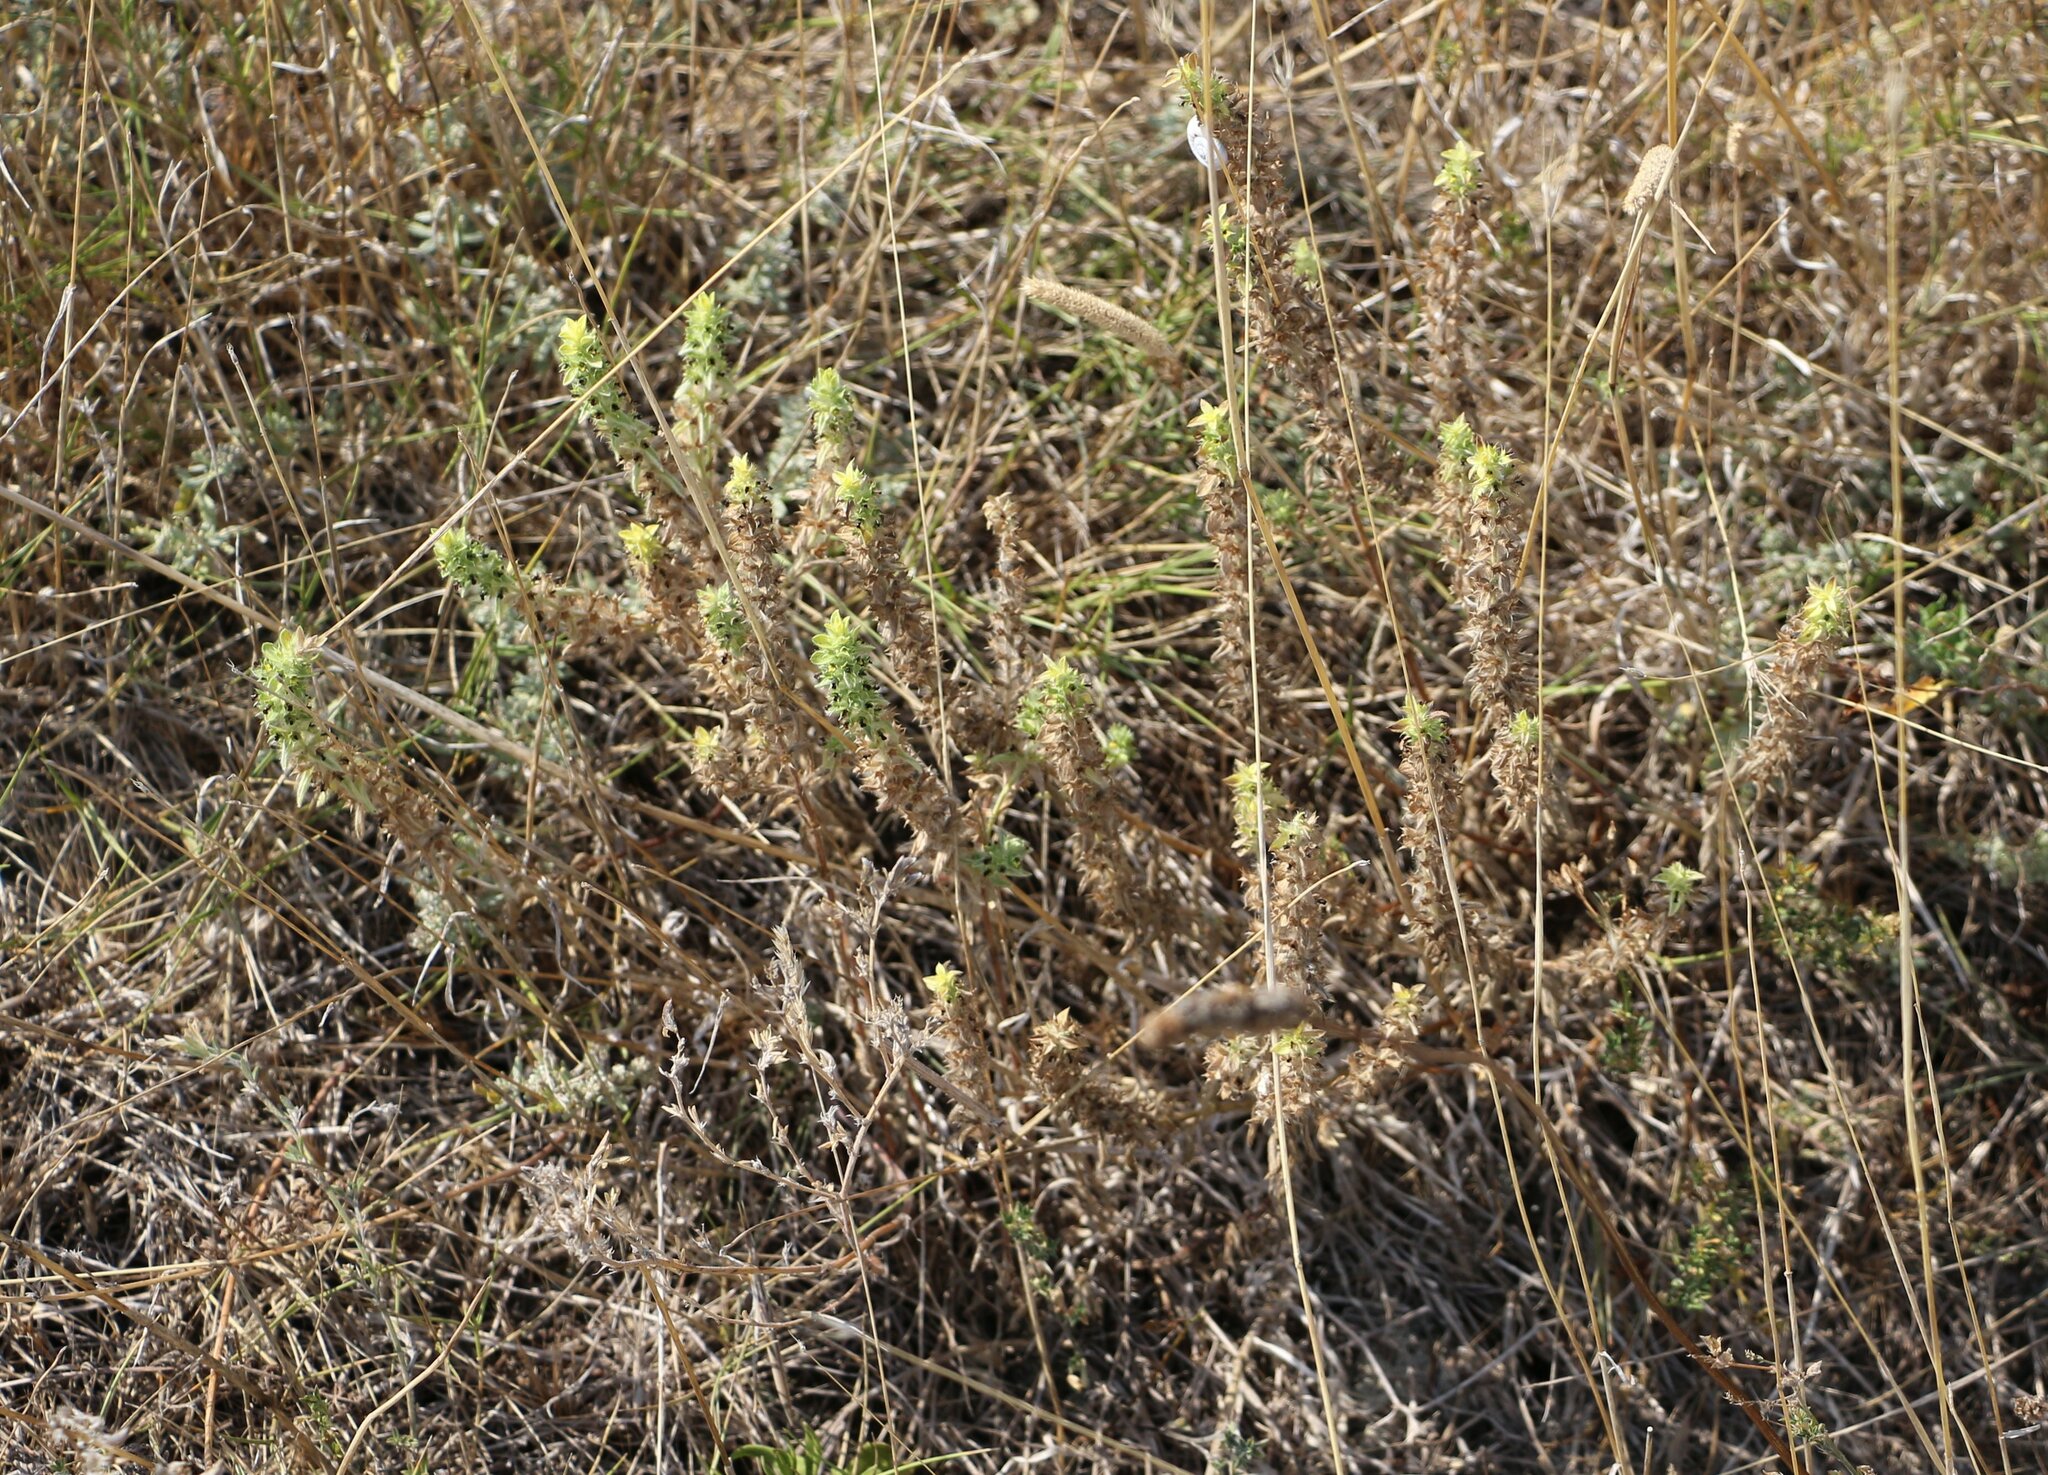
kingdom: Plantae
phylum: Tracheophyta
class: Magnoliopsida
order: Lamiales
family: Lamiaceae
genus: Sideritis
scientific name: Sideritis montana
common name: Mountain ironwort
